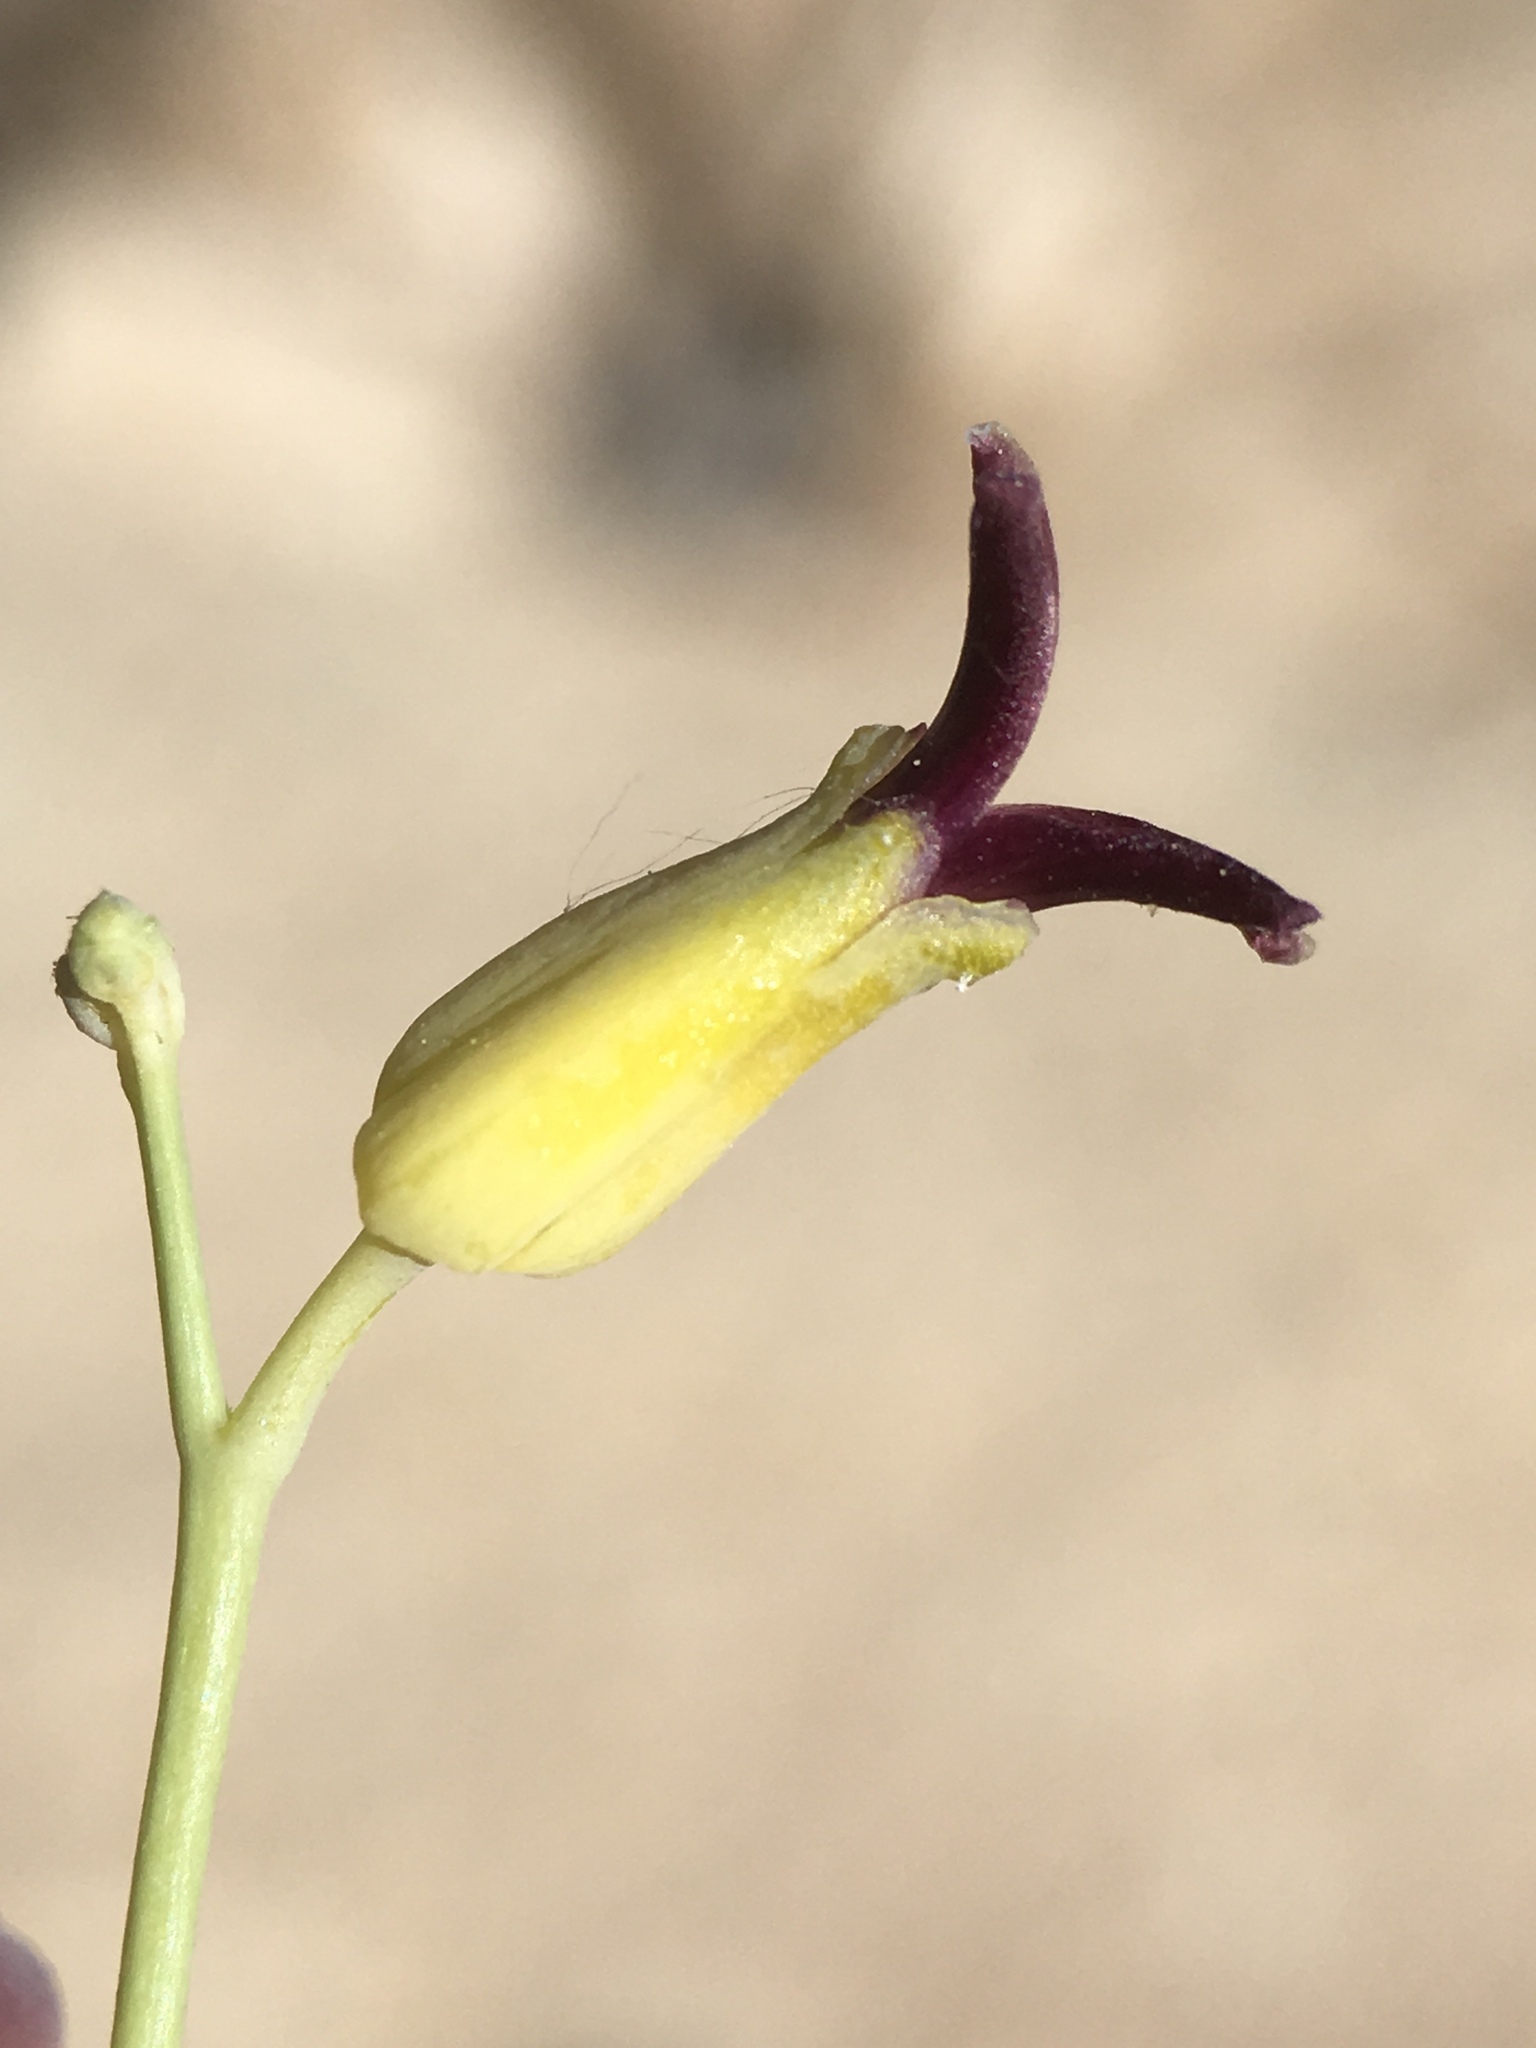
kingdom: Plantae
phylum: Tracheophyta
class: Magnoliopsida
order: Brassicales
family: Brassicaceae
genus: Streptanthus
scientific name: Streptanthus cordatus
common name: Heart-leaf jewel-flower
